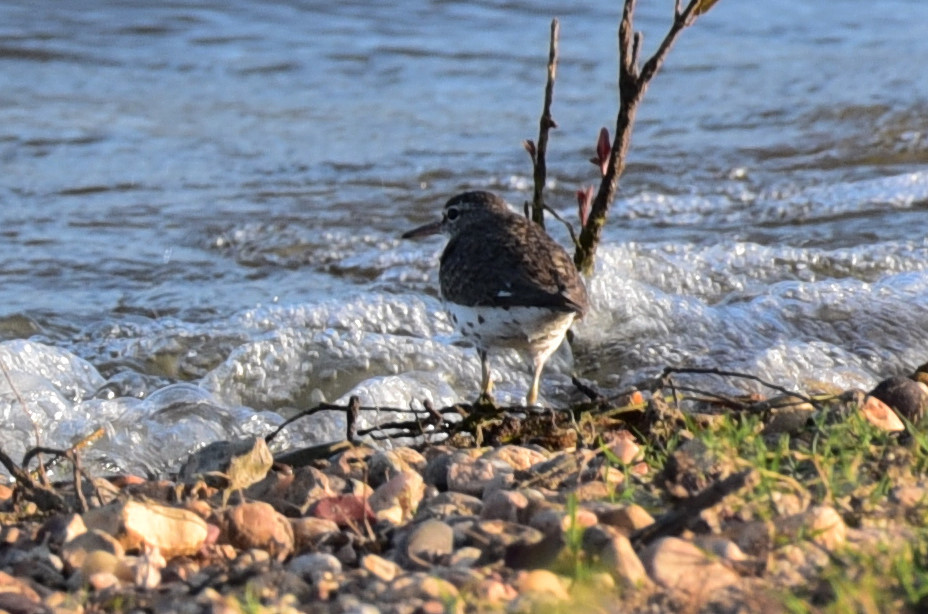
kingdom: Animalia
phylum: Chordata
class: Aves
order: Charadriiformes
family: Scolopacidae
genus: Actitis
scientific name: Actitis macularius
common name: Spotted sandpiper
